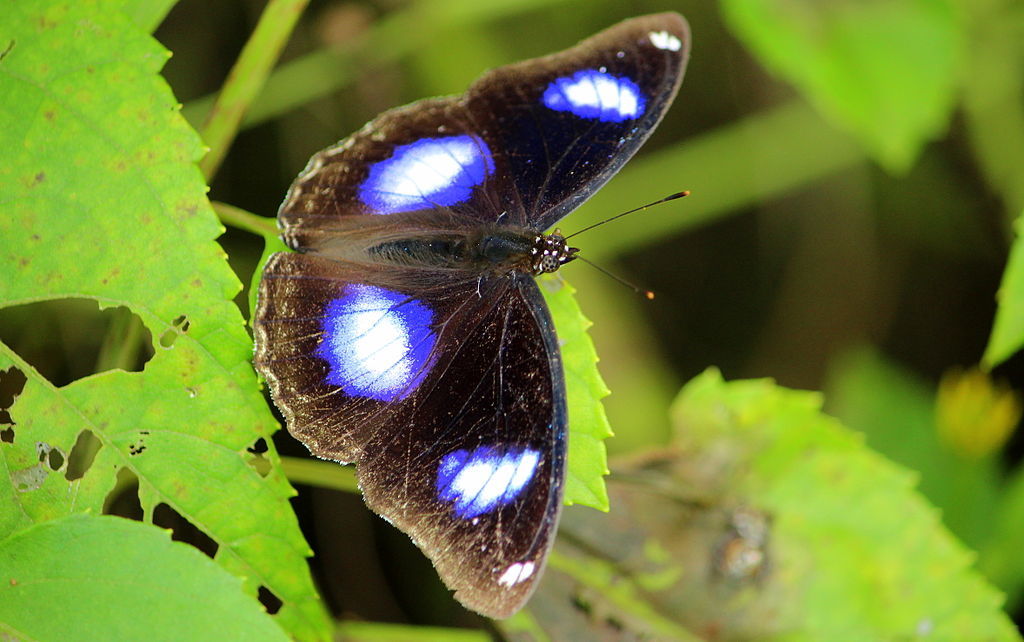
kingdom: Animalia
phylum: Arthropoda
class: Insecta
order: Lepidoptera
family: Nymphalidae
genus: Hypolimnas
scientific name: Hypolimnas bolina
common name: Great eggfly
